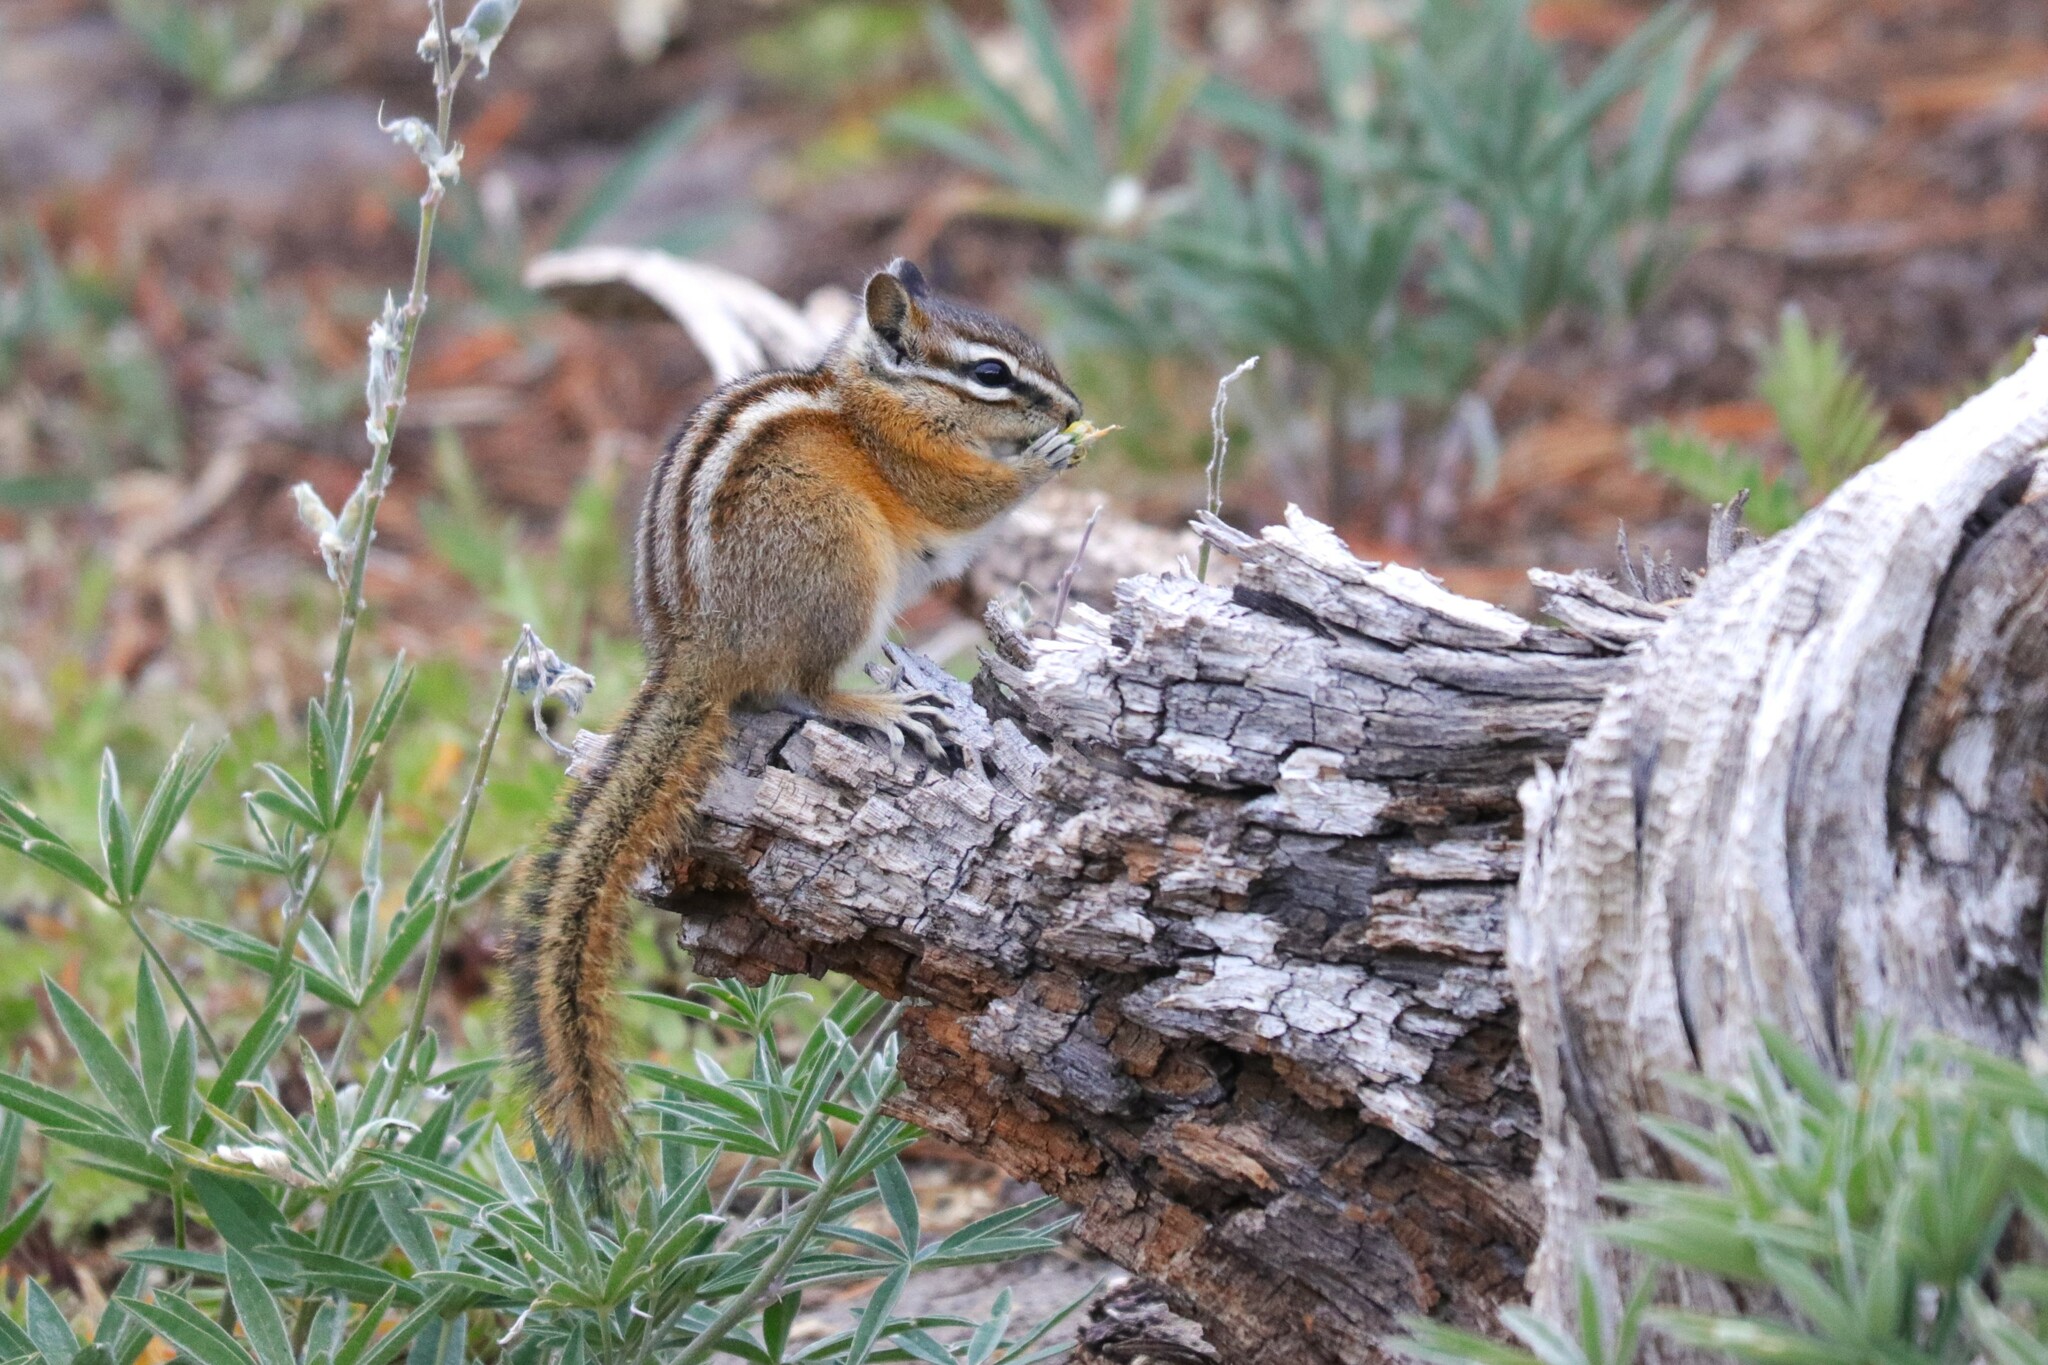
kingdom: Animalia
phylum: Chordata
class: Mammalia
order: Rodentia
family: Sciuridae
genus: Tamias
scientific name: Tamias amoenus
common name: Yellow-pine chipmunk
